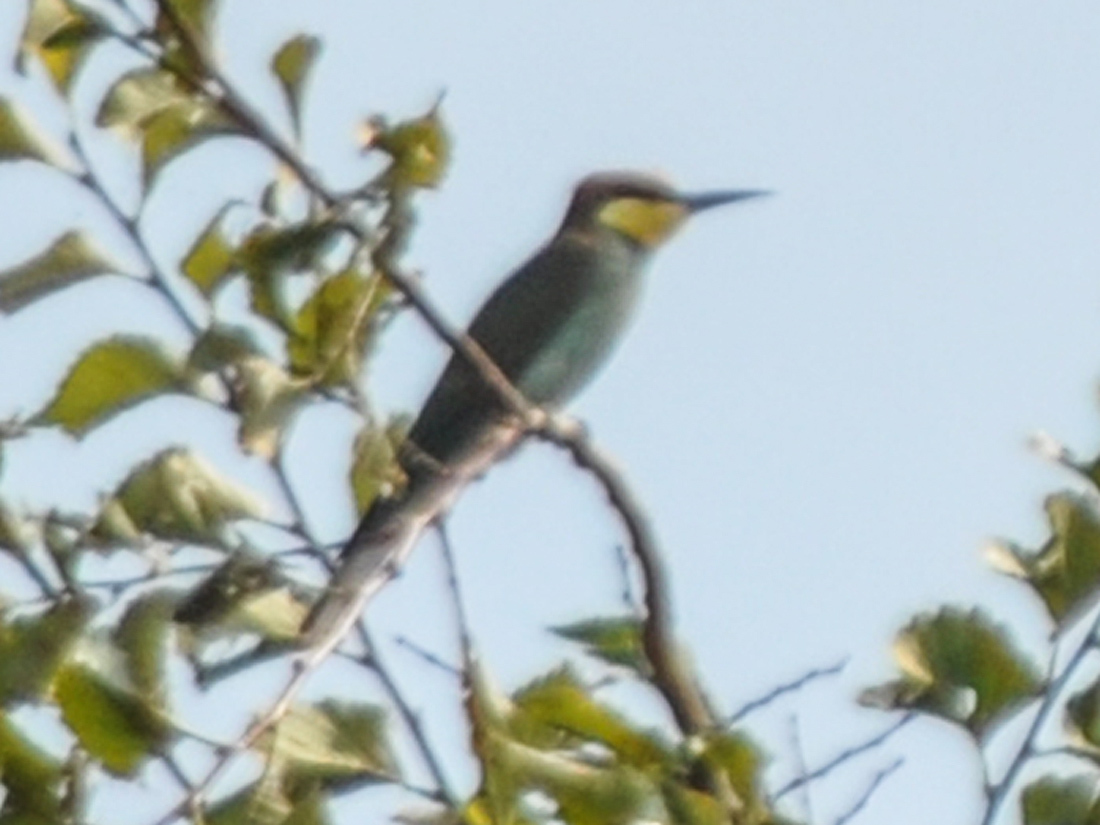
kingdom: Animalia
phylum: Chordata
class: Aves
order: Coraciiformes
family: Meropidae
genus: Merops
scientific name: Merops apiaster
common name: European bee-eater
